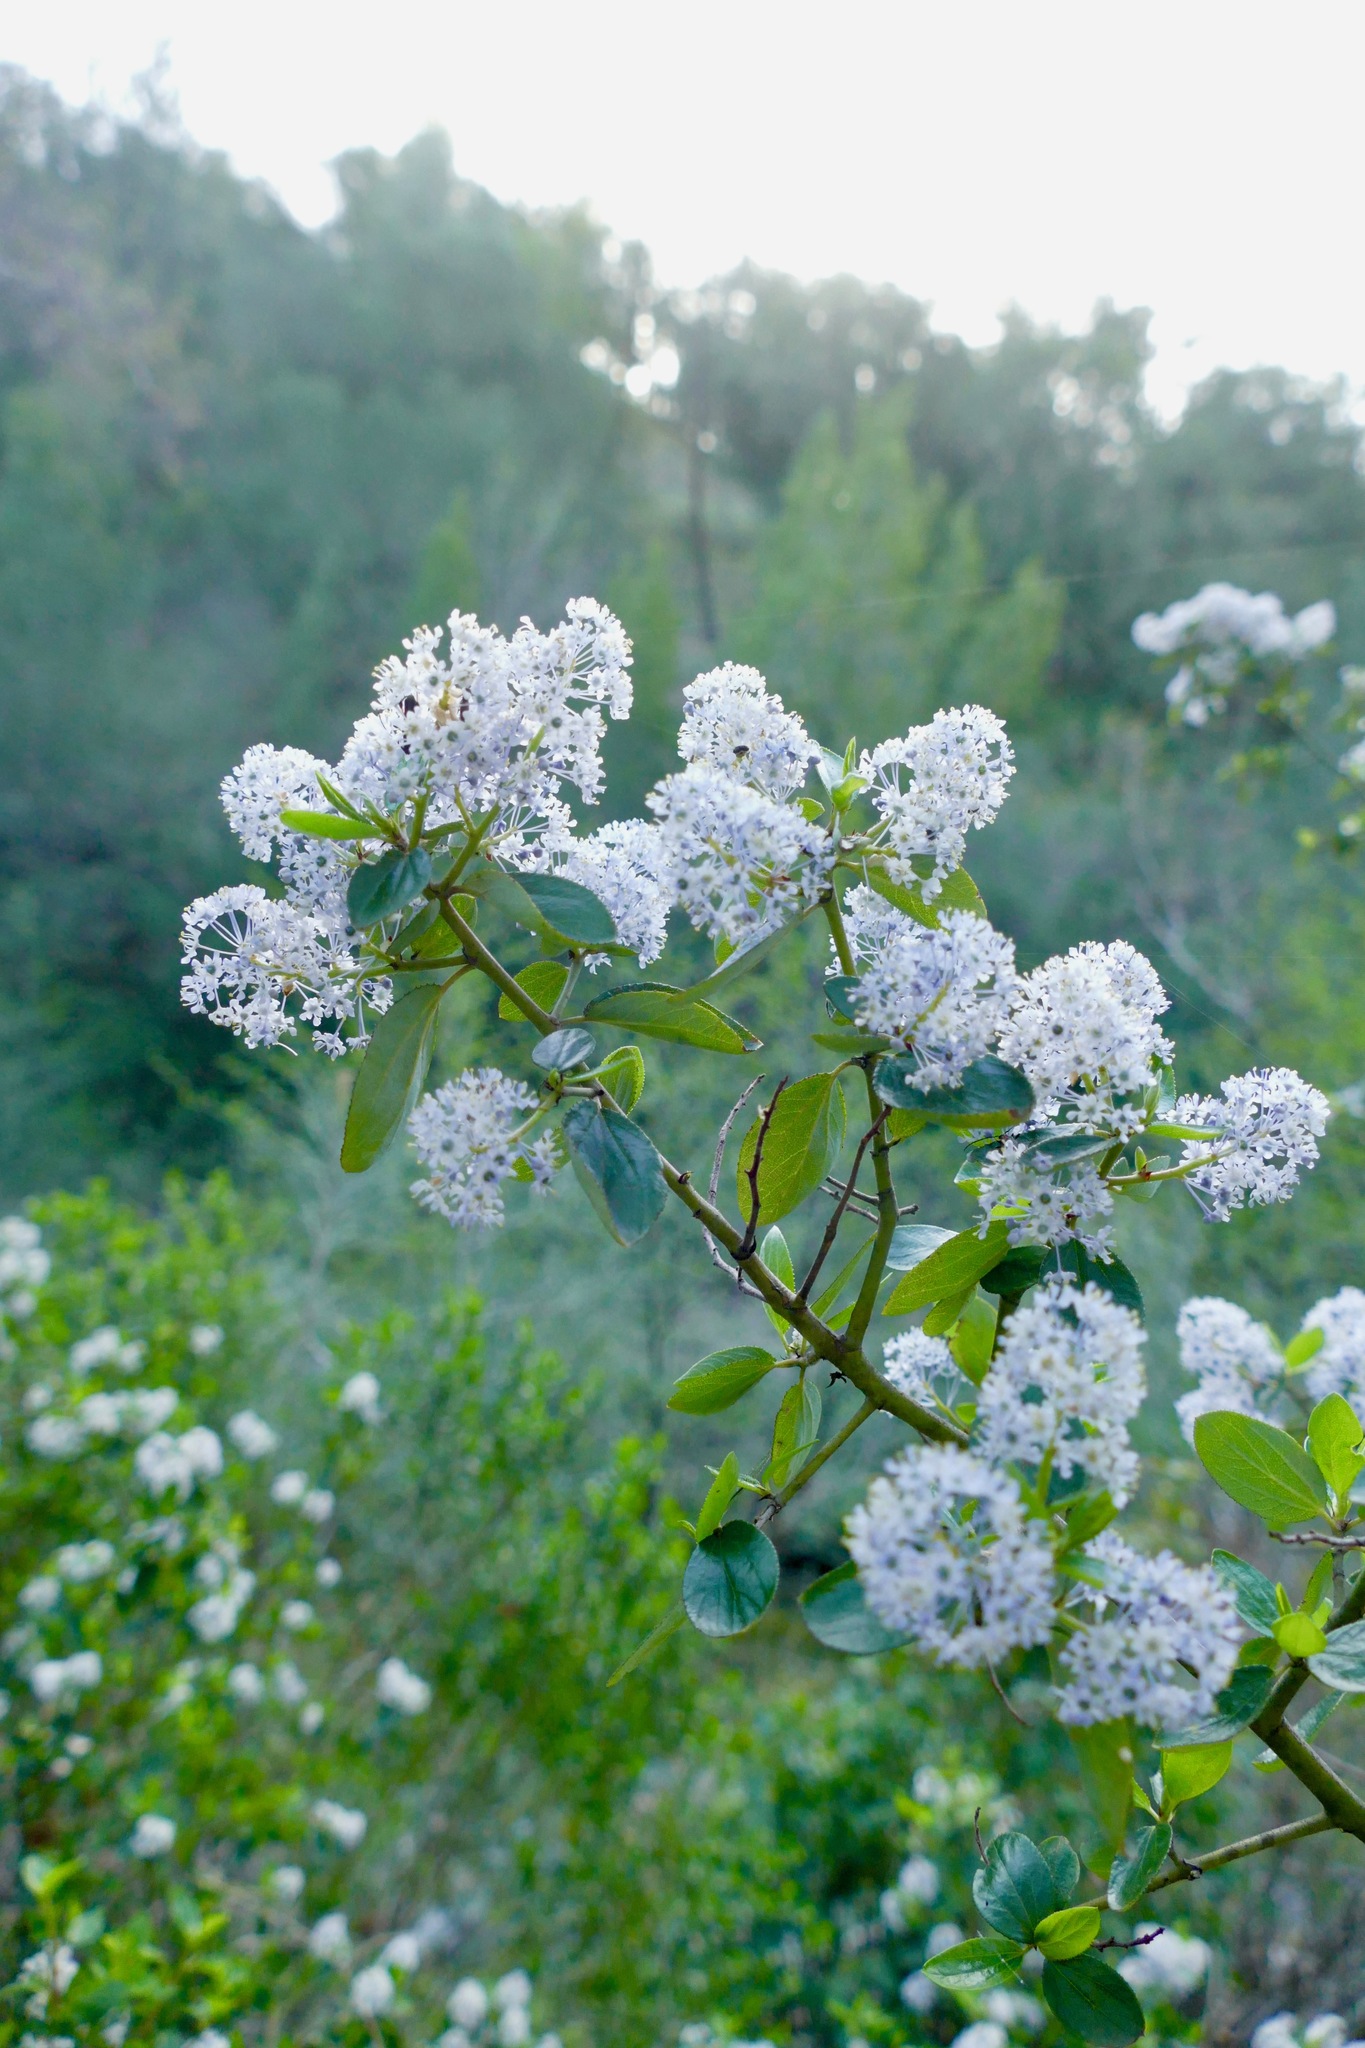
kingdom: Plantae
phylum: Tracheophyta
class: Magnoliopsida
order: Rosales
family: Rhamnaceae
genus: Ceanothus
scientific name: Ceanothus oliganthus
